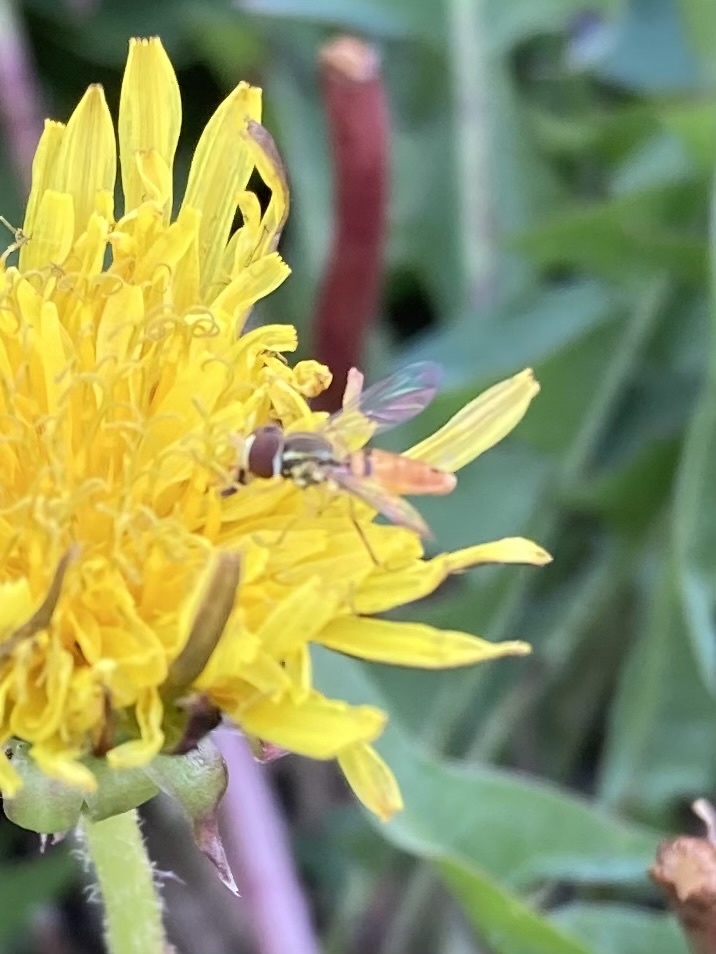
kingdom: Animalia
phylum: Arthropoda
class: Insecta
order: Diptera
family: Syrphidae
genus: Toxomerus
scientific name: Toxomerus marginatus
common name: Syrphid fly
